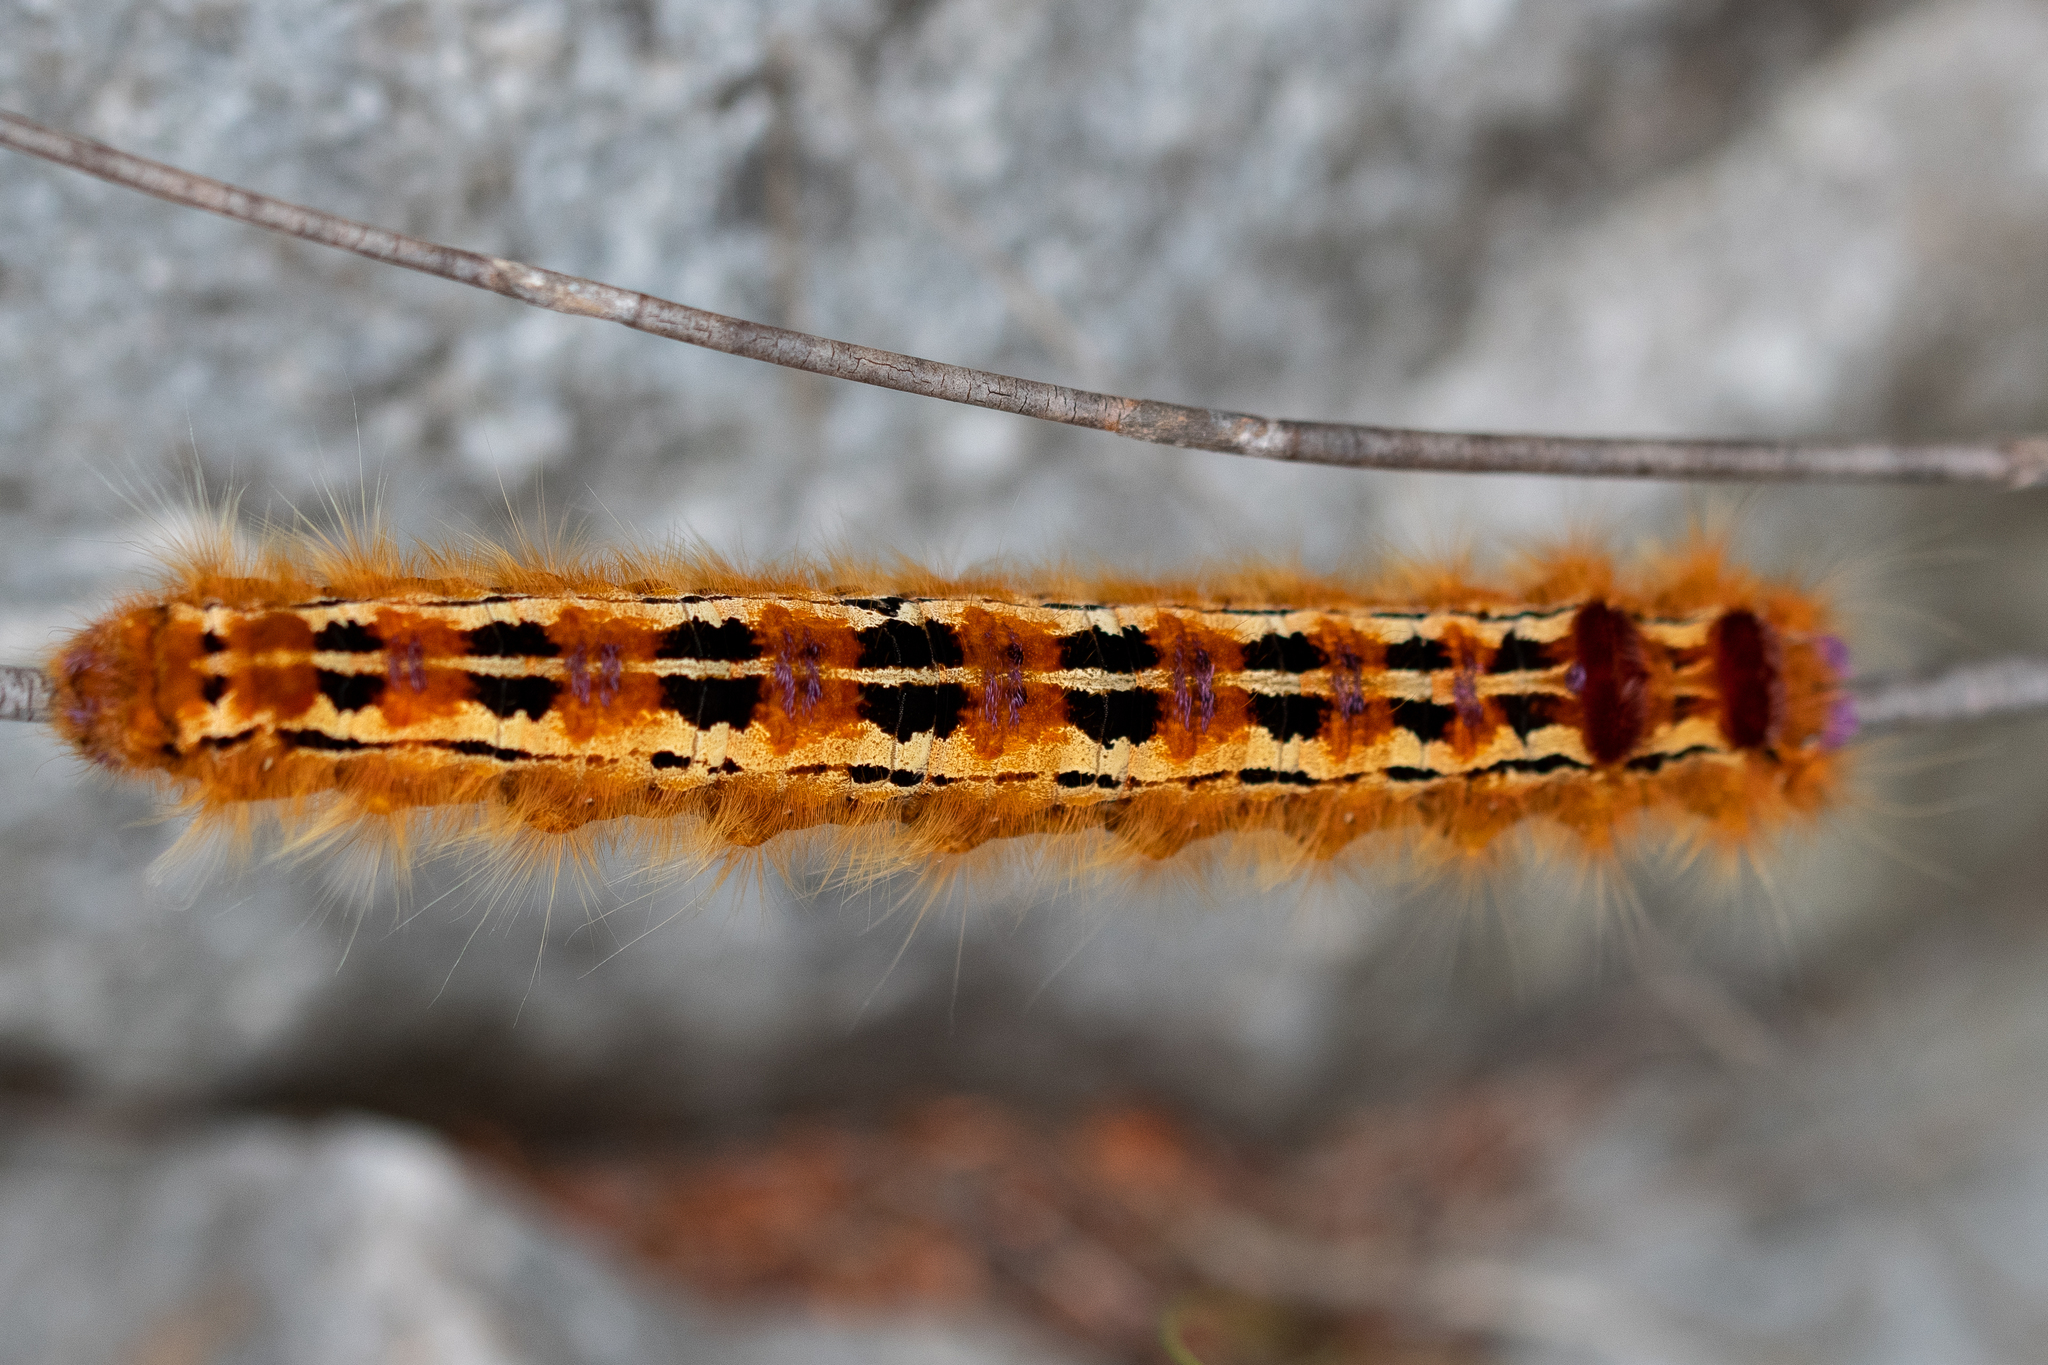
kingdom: Animalia
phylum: Arthropoda
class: Insecta
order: Lepidoptera
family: Lasiocampidae
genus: Eutricha
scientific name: Eutricha bifascia
